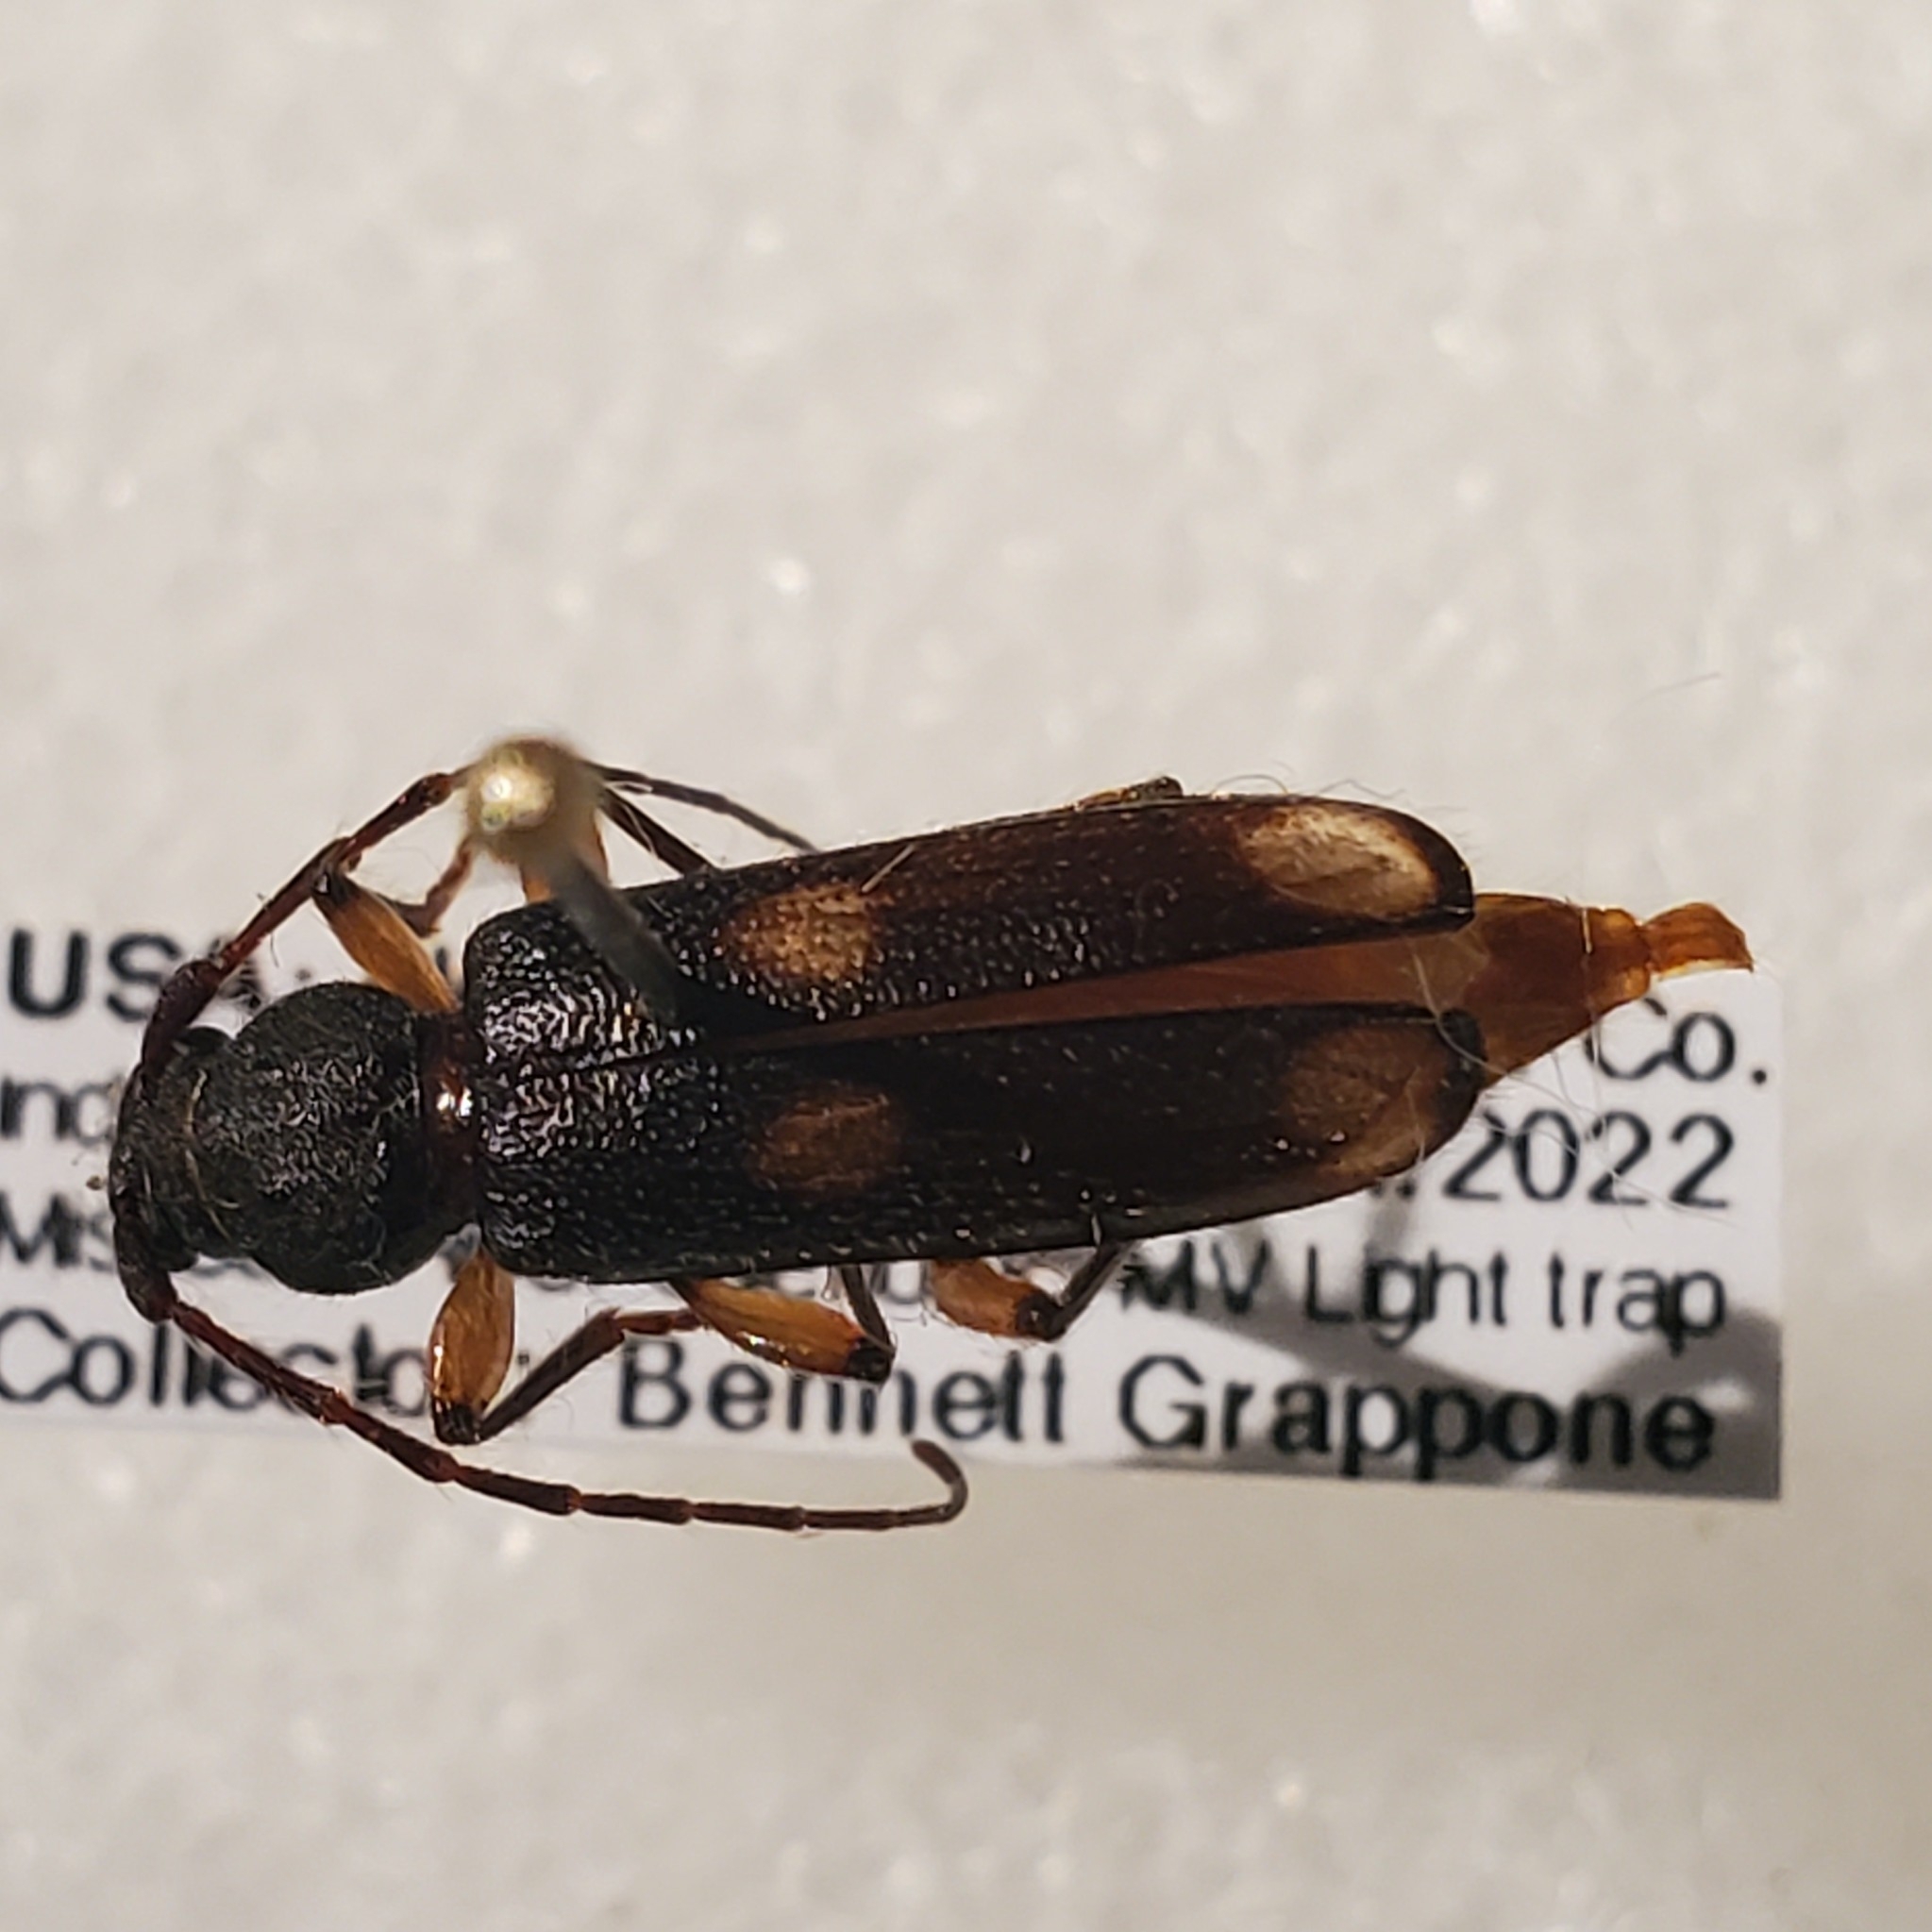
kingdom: Animalia
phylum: Arthropoda
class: Insecta
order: Coleoptera
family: Cerambycidae
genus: Tylonotus
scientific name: Tylonotus bimaculatus
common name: Ash and privet borer
